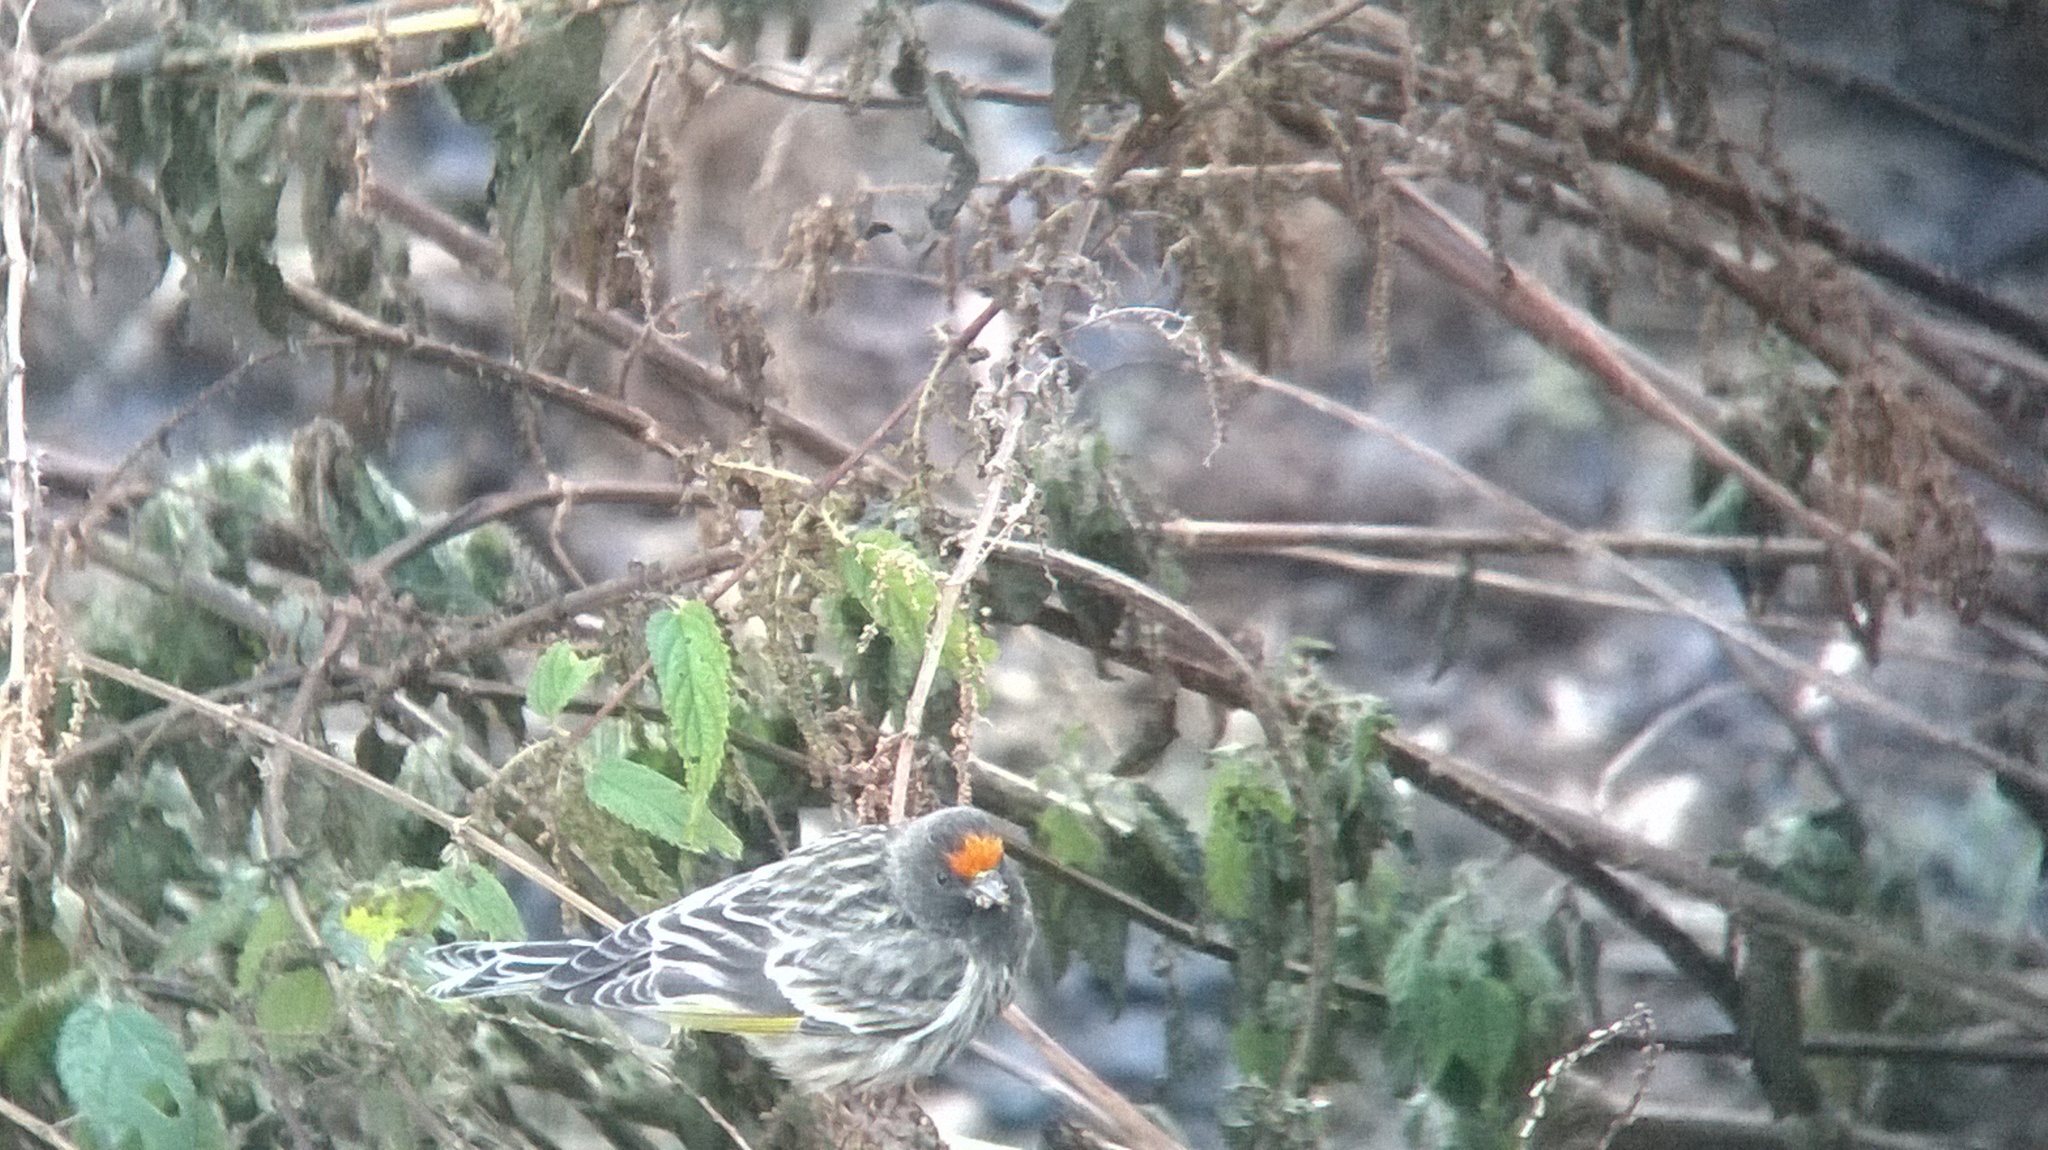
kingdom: Animalia
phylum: Chordata
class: Aves
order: Passeriformes
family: Fringillidae
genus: Serinus
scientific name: Serinus pusillus
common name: Red-fronted serin
